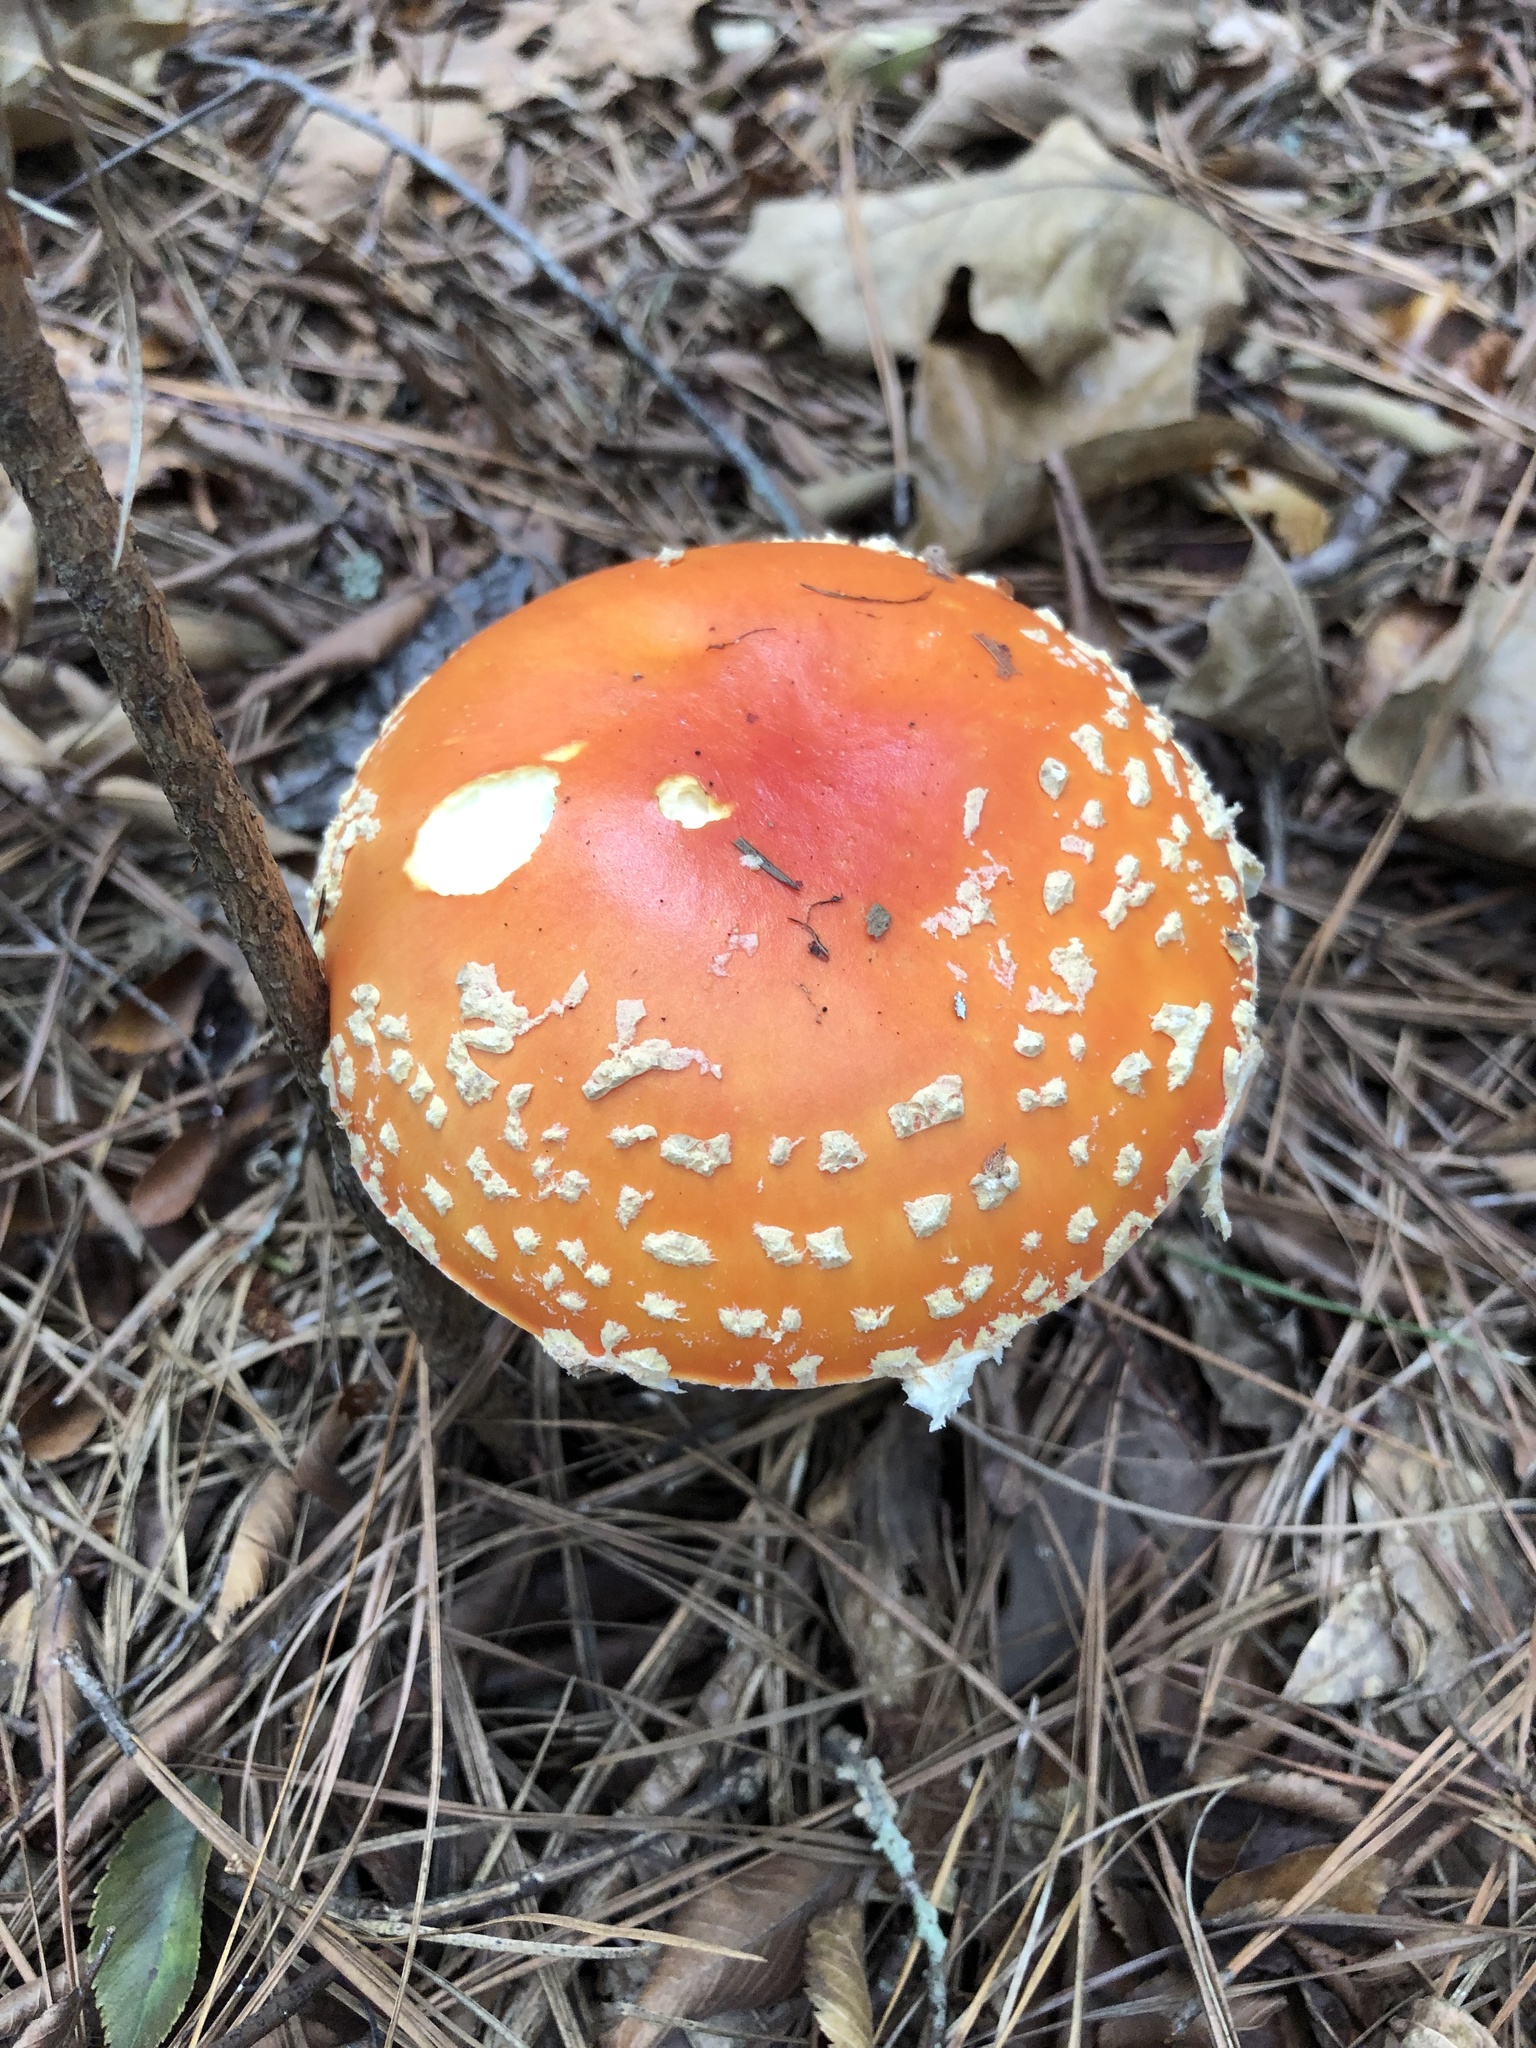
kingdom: Fungi
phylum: Basidiomycota
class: Agaricomycetes
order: Agaricales
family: Amanitaceae
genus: Amanita
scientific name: Amanita persicina
